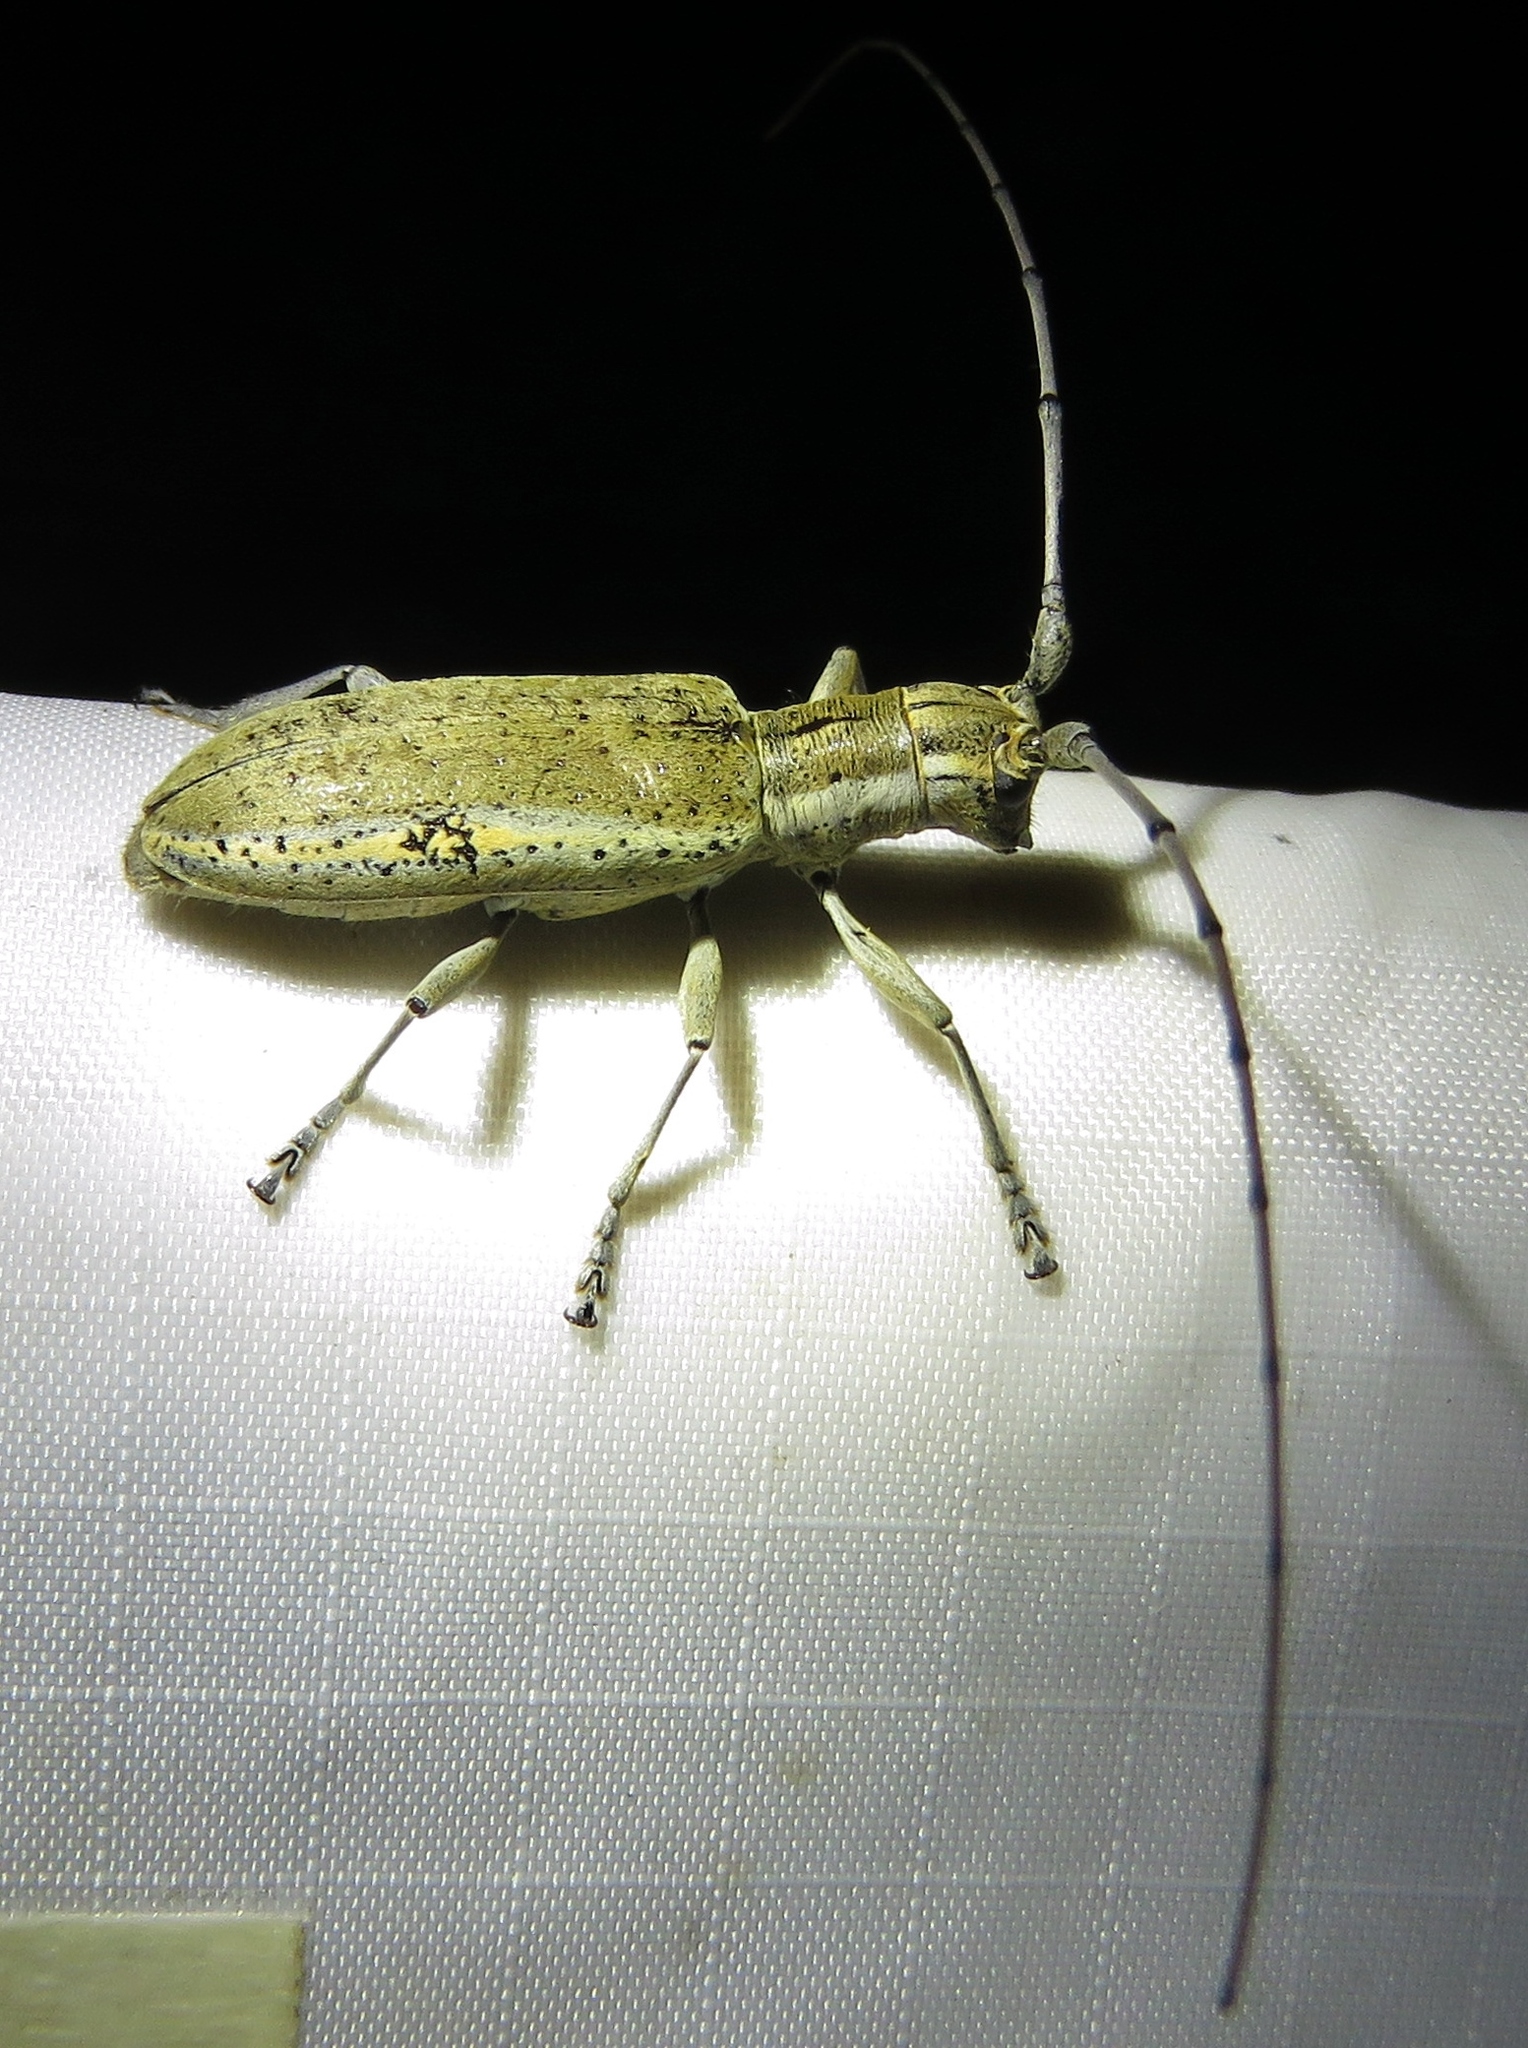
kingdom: Animalia
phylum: Arthropoda
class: Insecta
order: Coleoptera
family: Cerambycidae
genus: Dorcaschema
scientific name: Dorcaschema wildii
